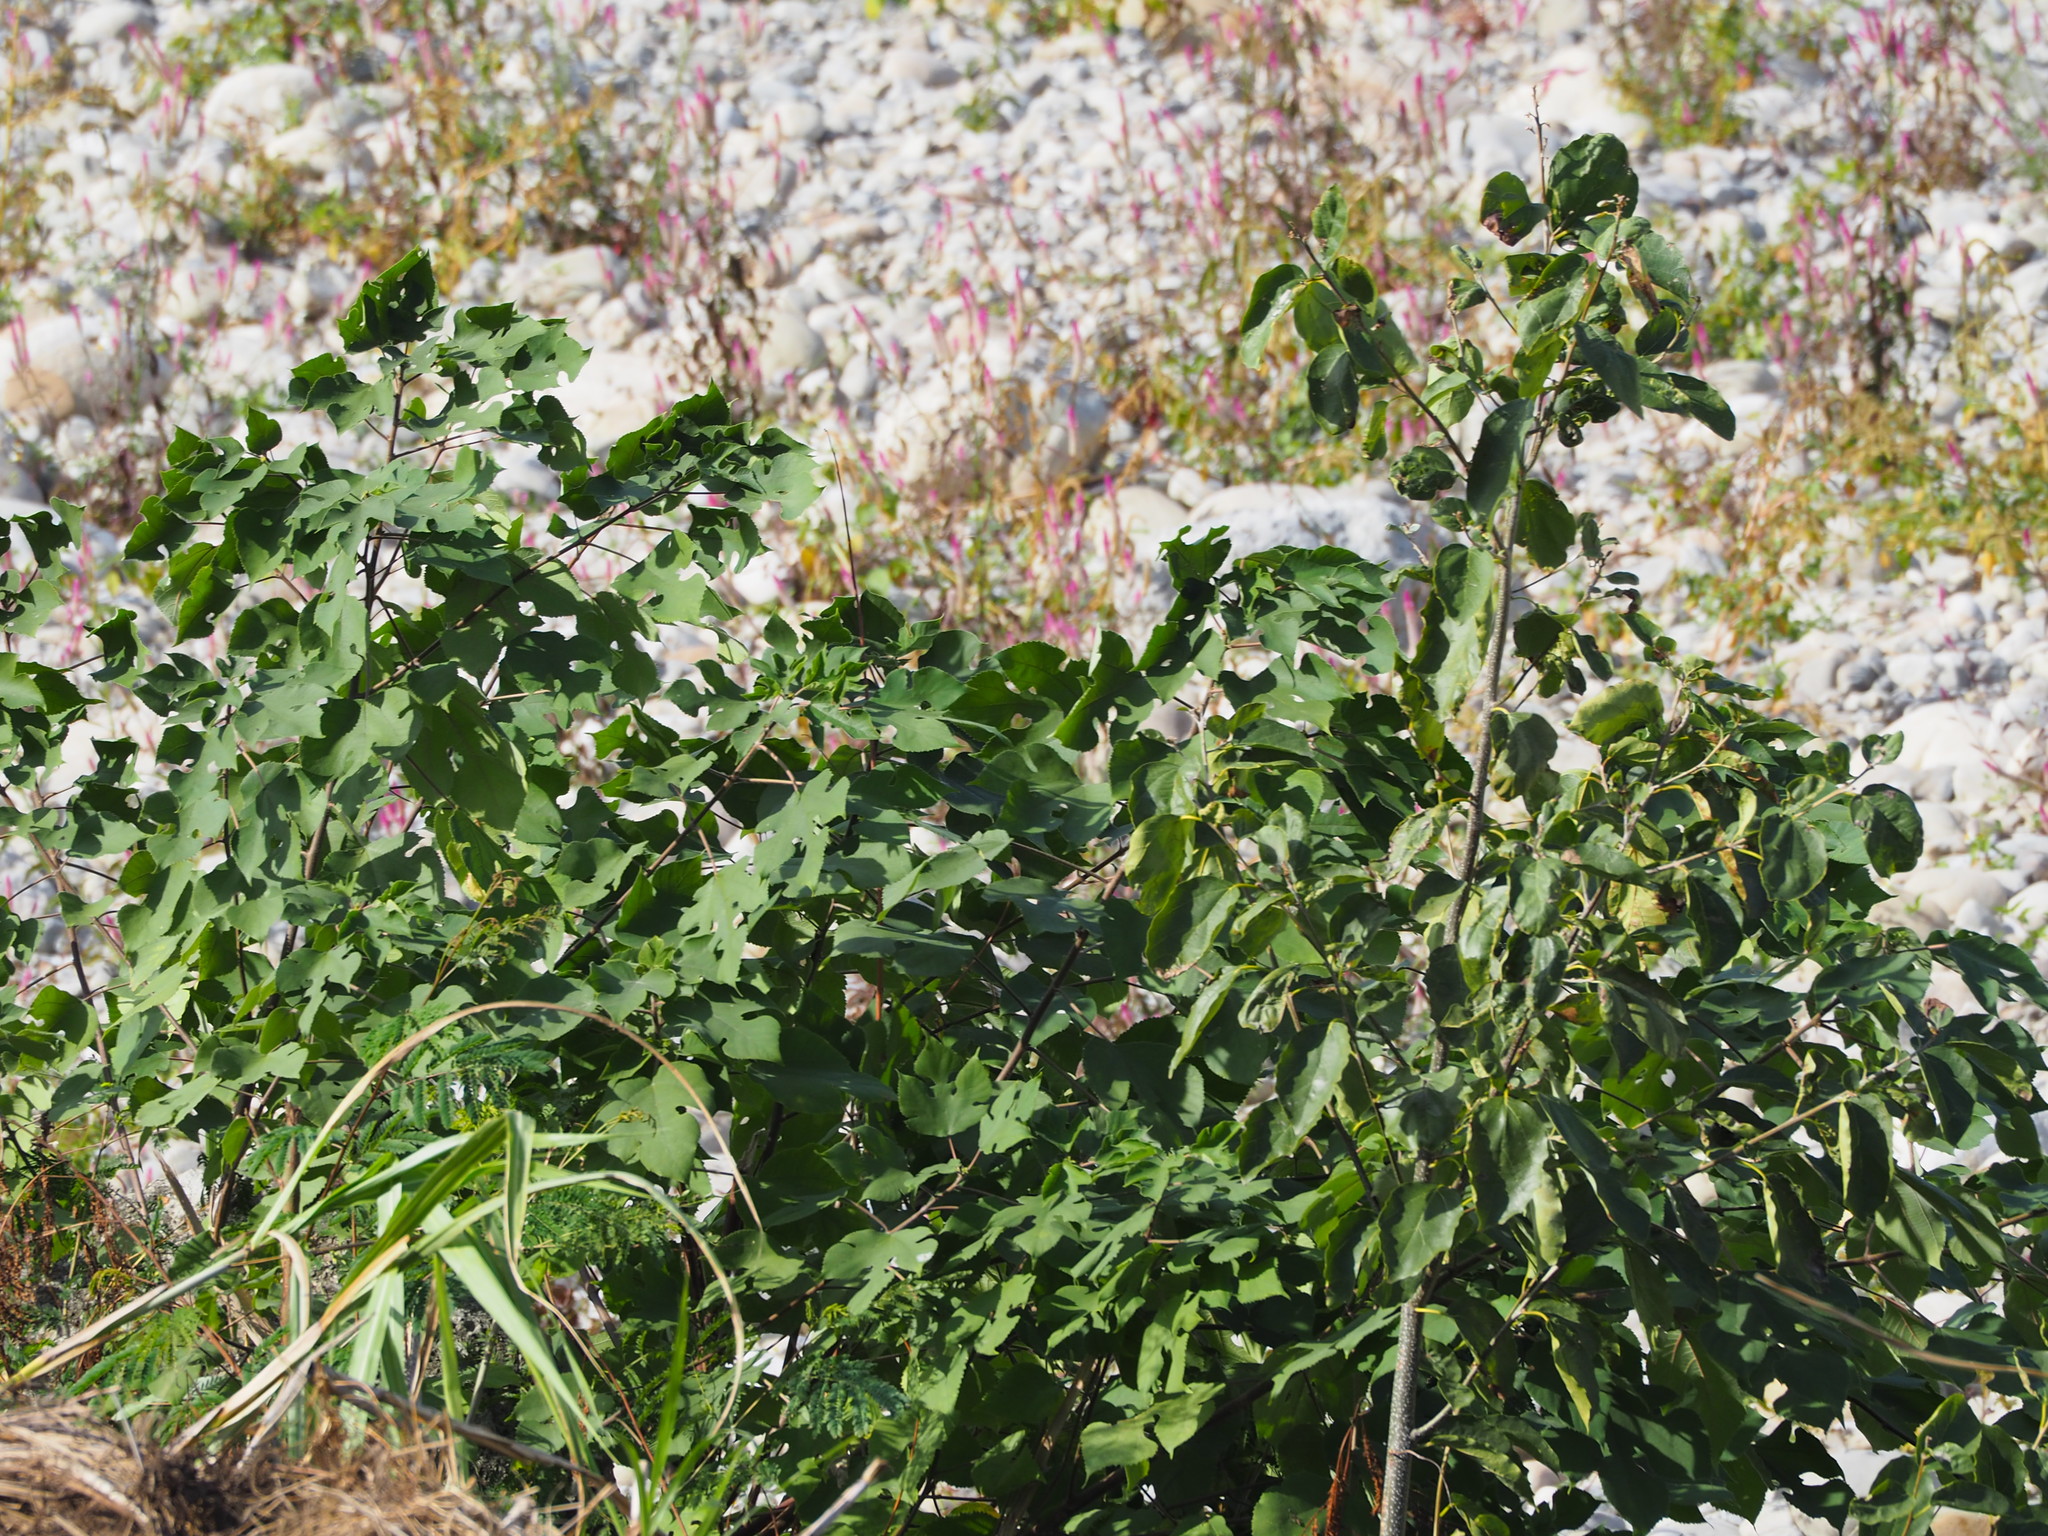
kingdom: Plantae
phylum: Tracheophyta
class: Magnoliopsida
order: Rosales
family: Moraceae
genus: Broussonetia
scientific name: Broussonetia papyrifera
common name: Paper mulberry
